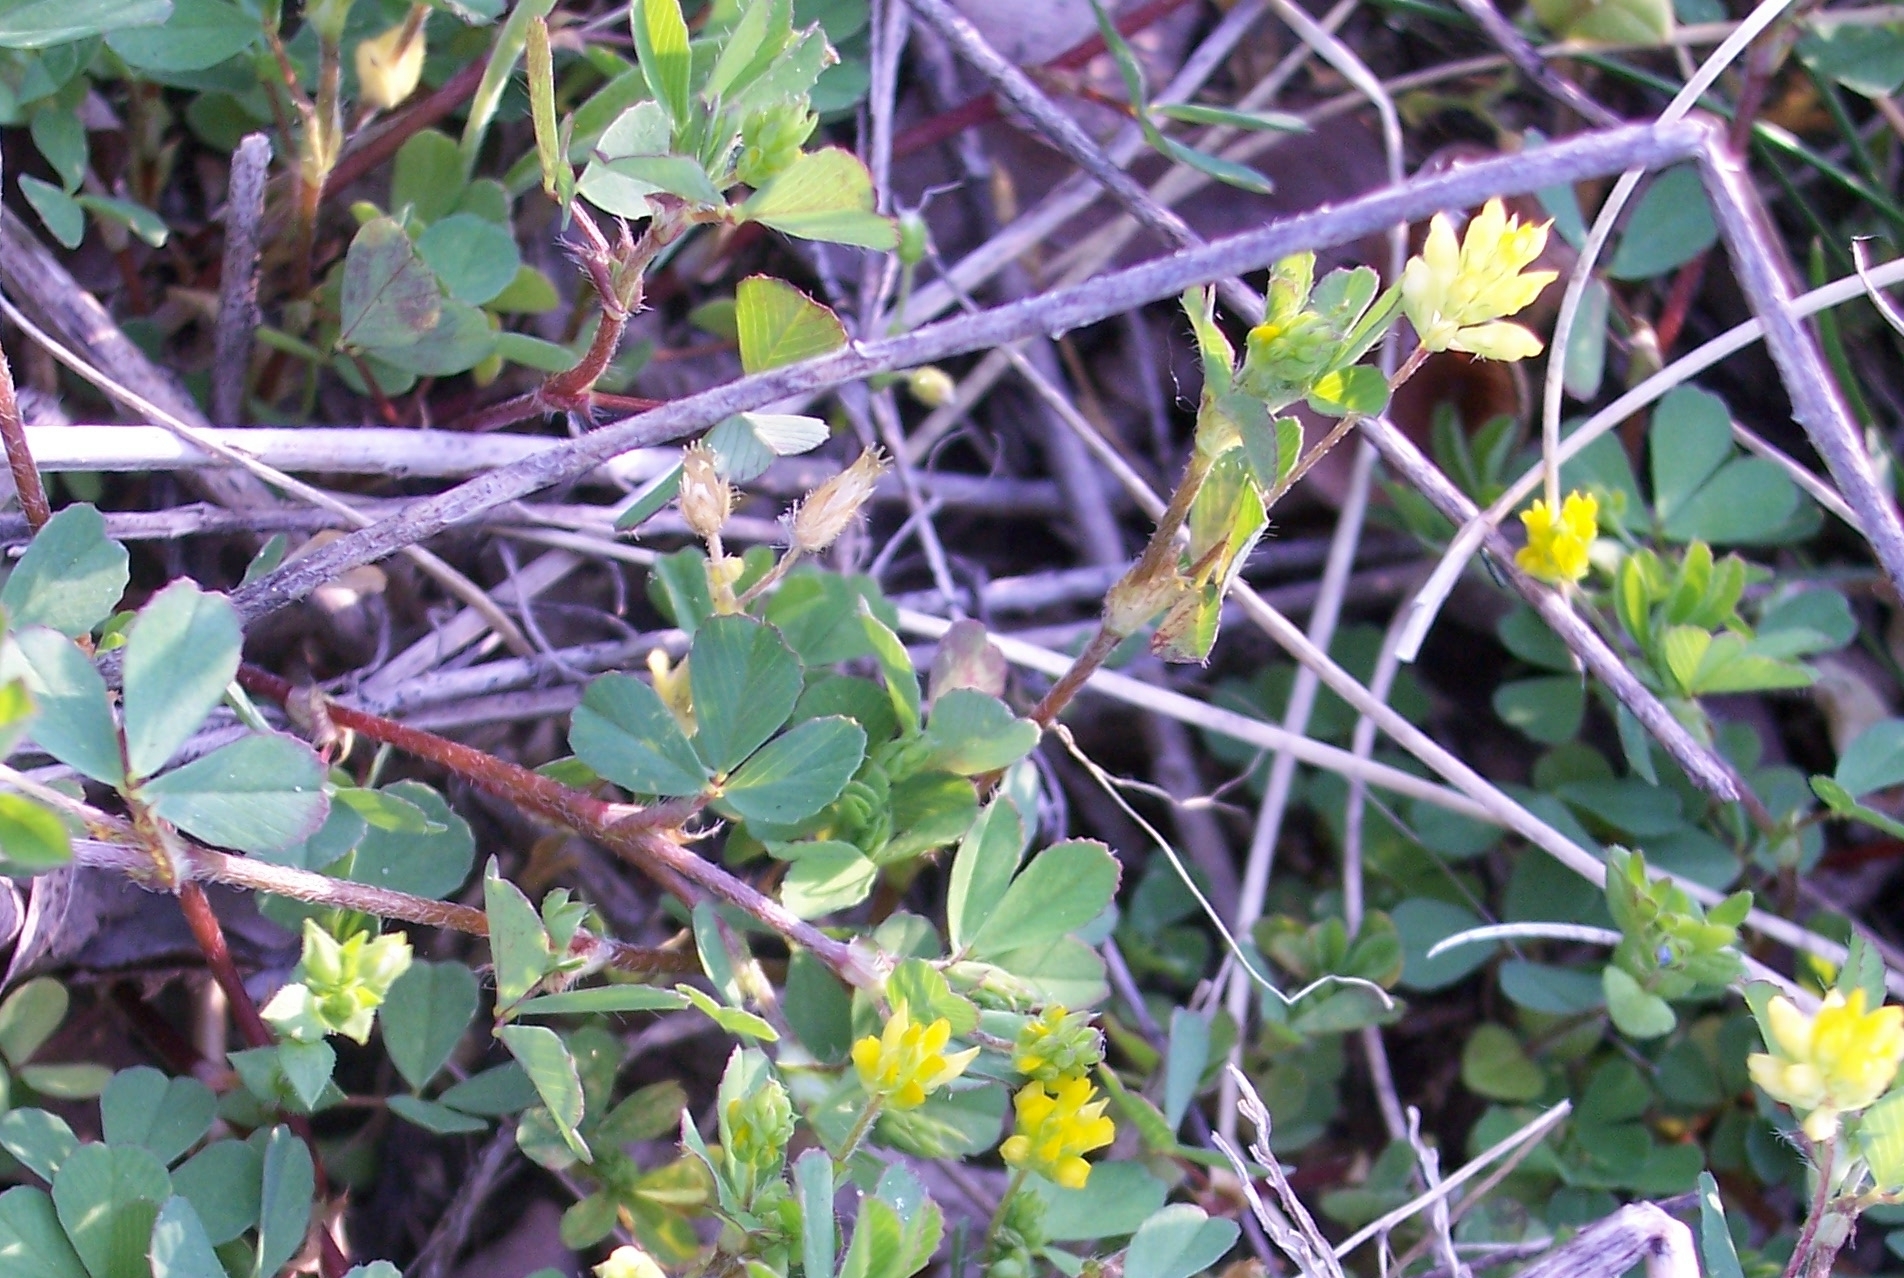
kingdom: Plantae
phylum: Tracheophyta
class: Magnoliopsida
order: Fabales
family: Fabaceae
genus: Trifolium
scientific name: Trifolium dubium
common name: Suckling clover
